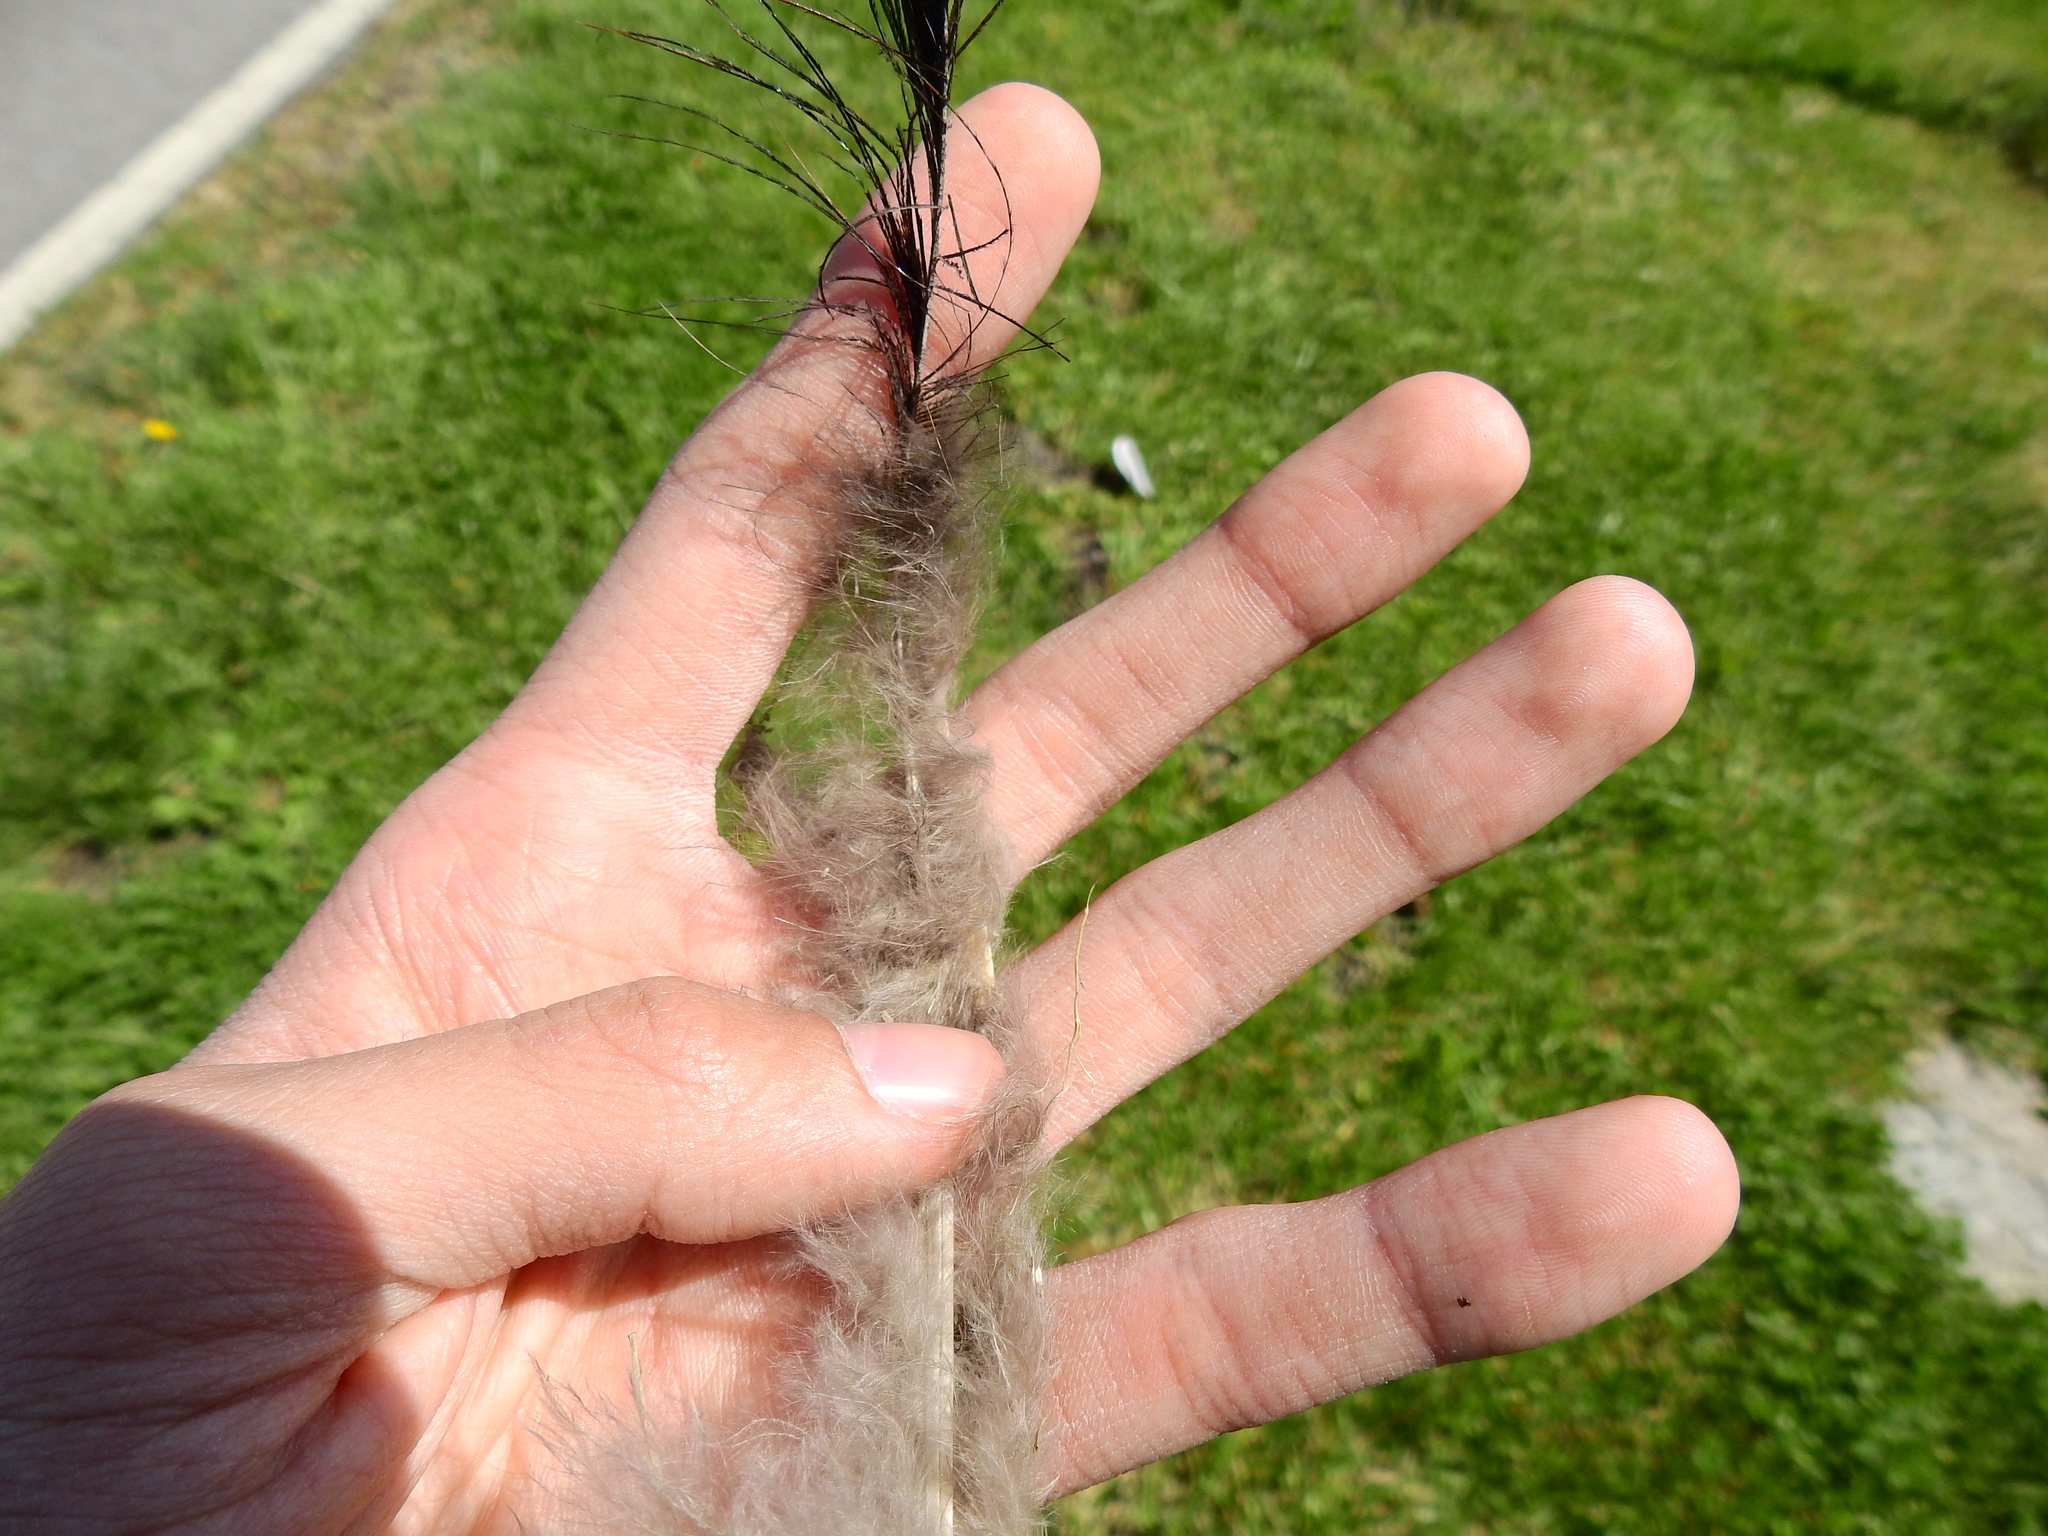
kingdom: Animalia
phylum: Chordata
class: Aves
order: Galliformes
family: Phasianidae
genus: Meleagris
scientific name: Meleagris gallopavo
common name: Wild turkey
